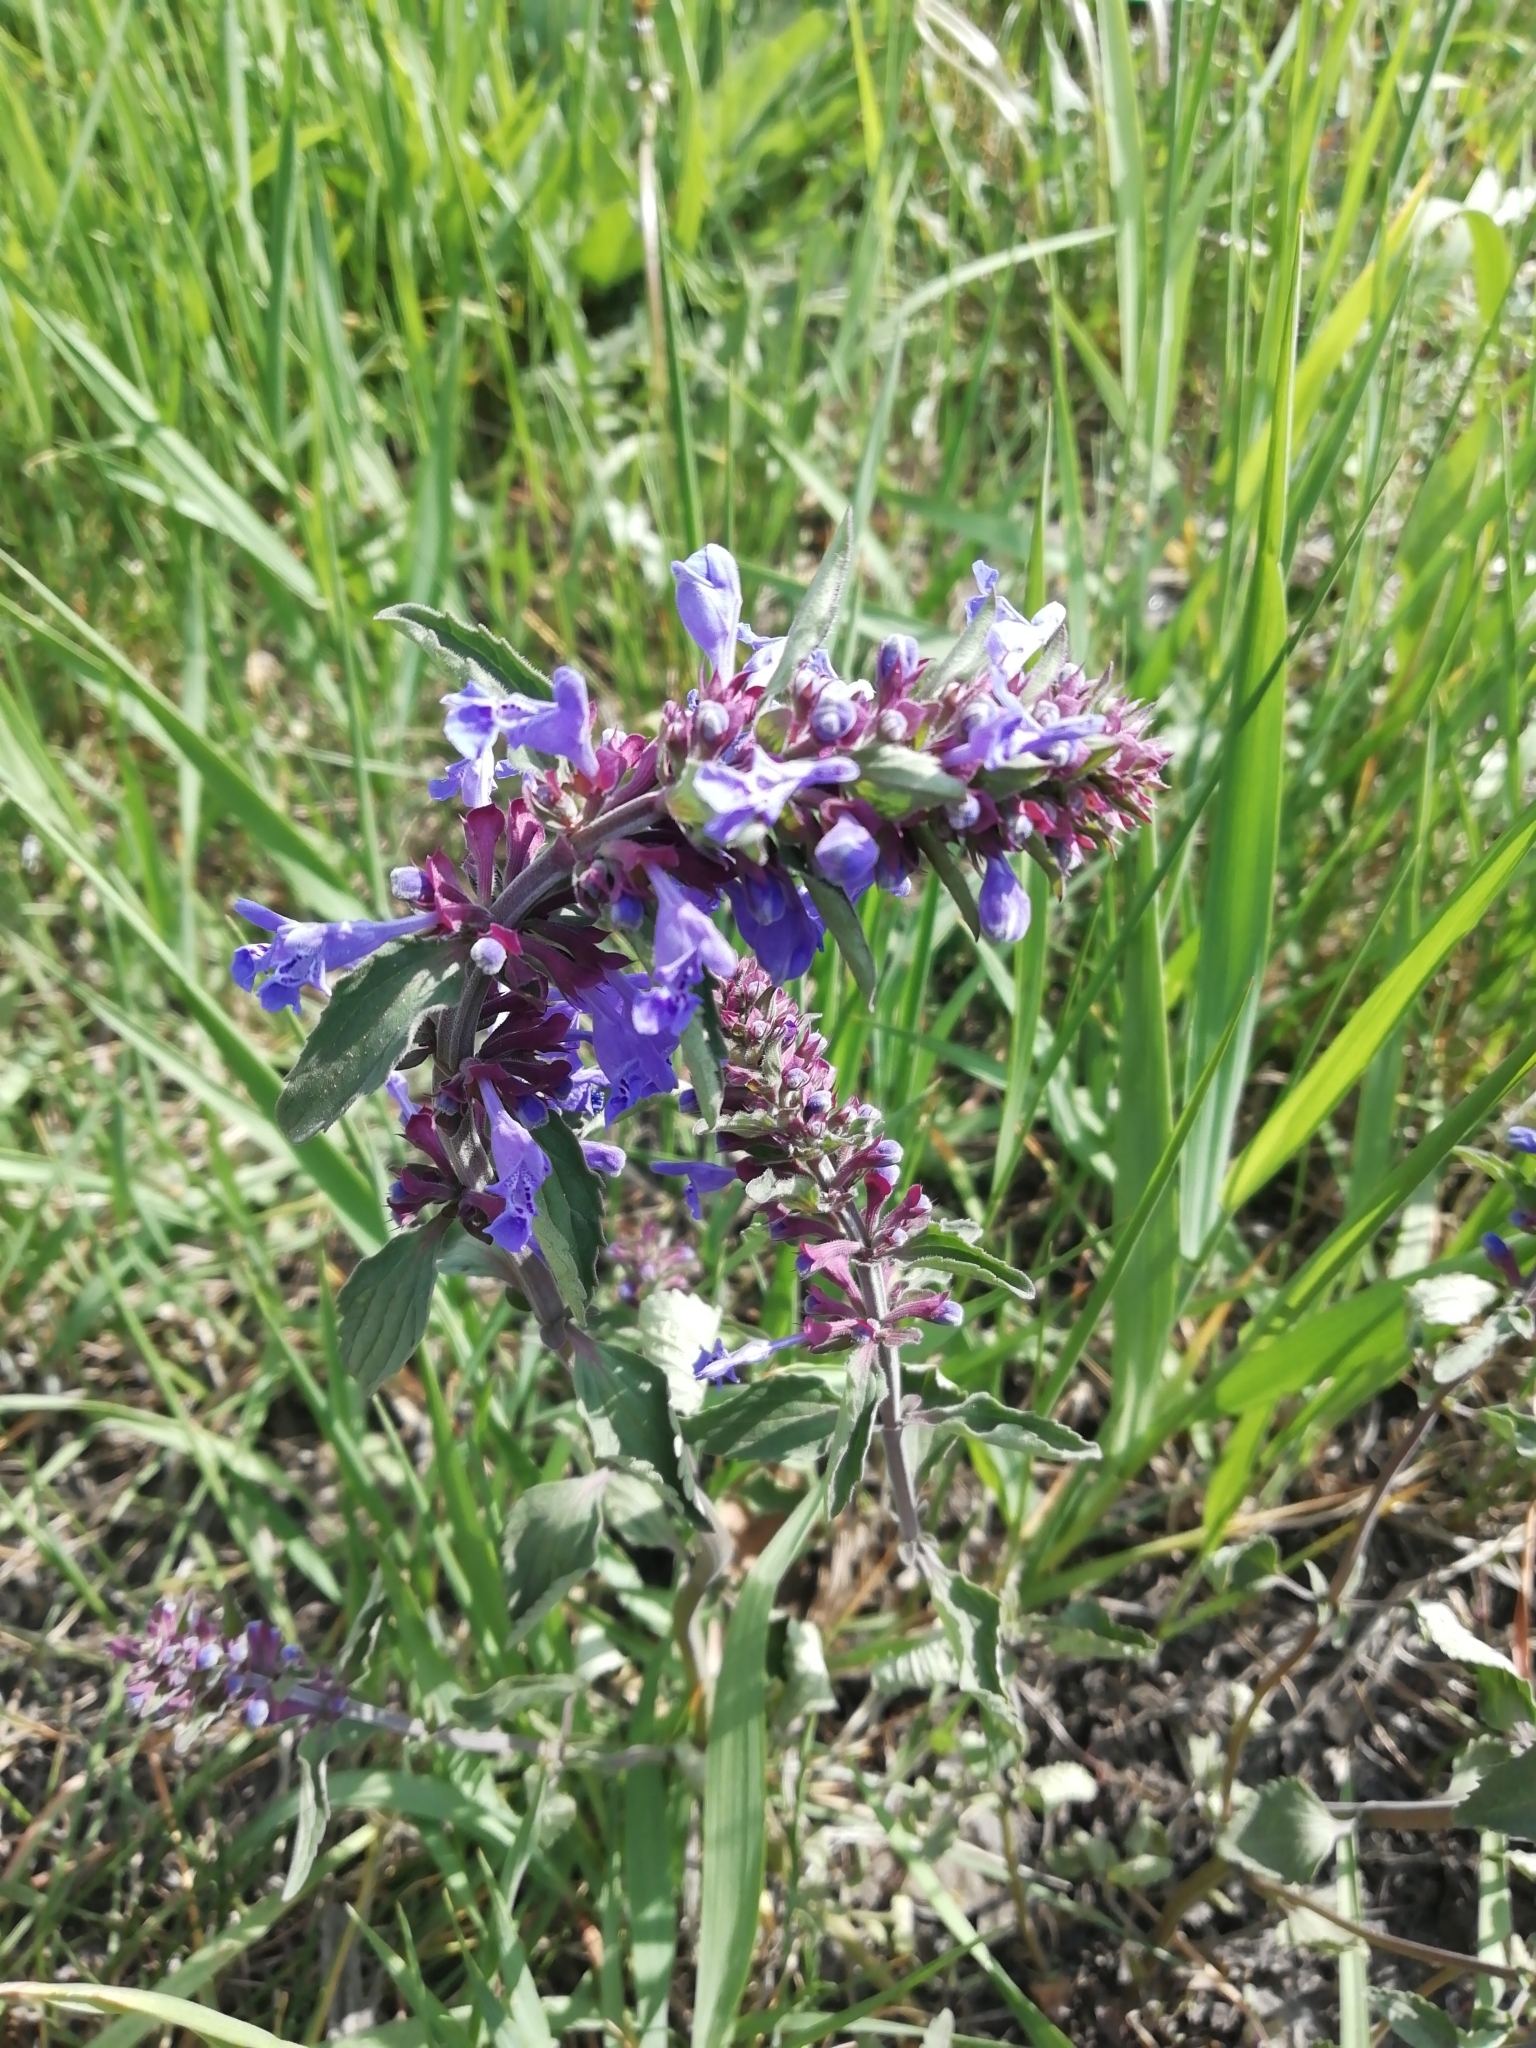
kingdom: Plantae
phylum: Tracheophyta
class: Magnoliopsida
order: Lamiales
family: Lamiaceae
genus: Dracocephalum
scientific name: Dracocephalum nutans
